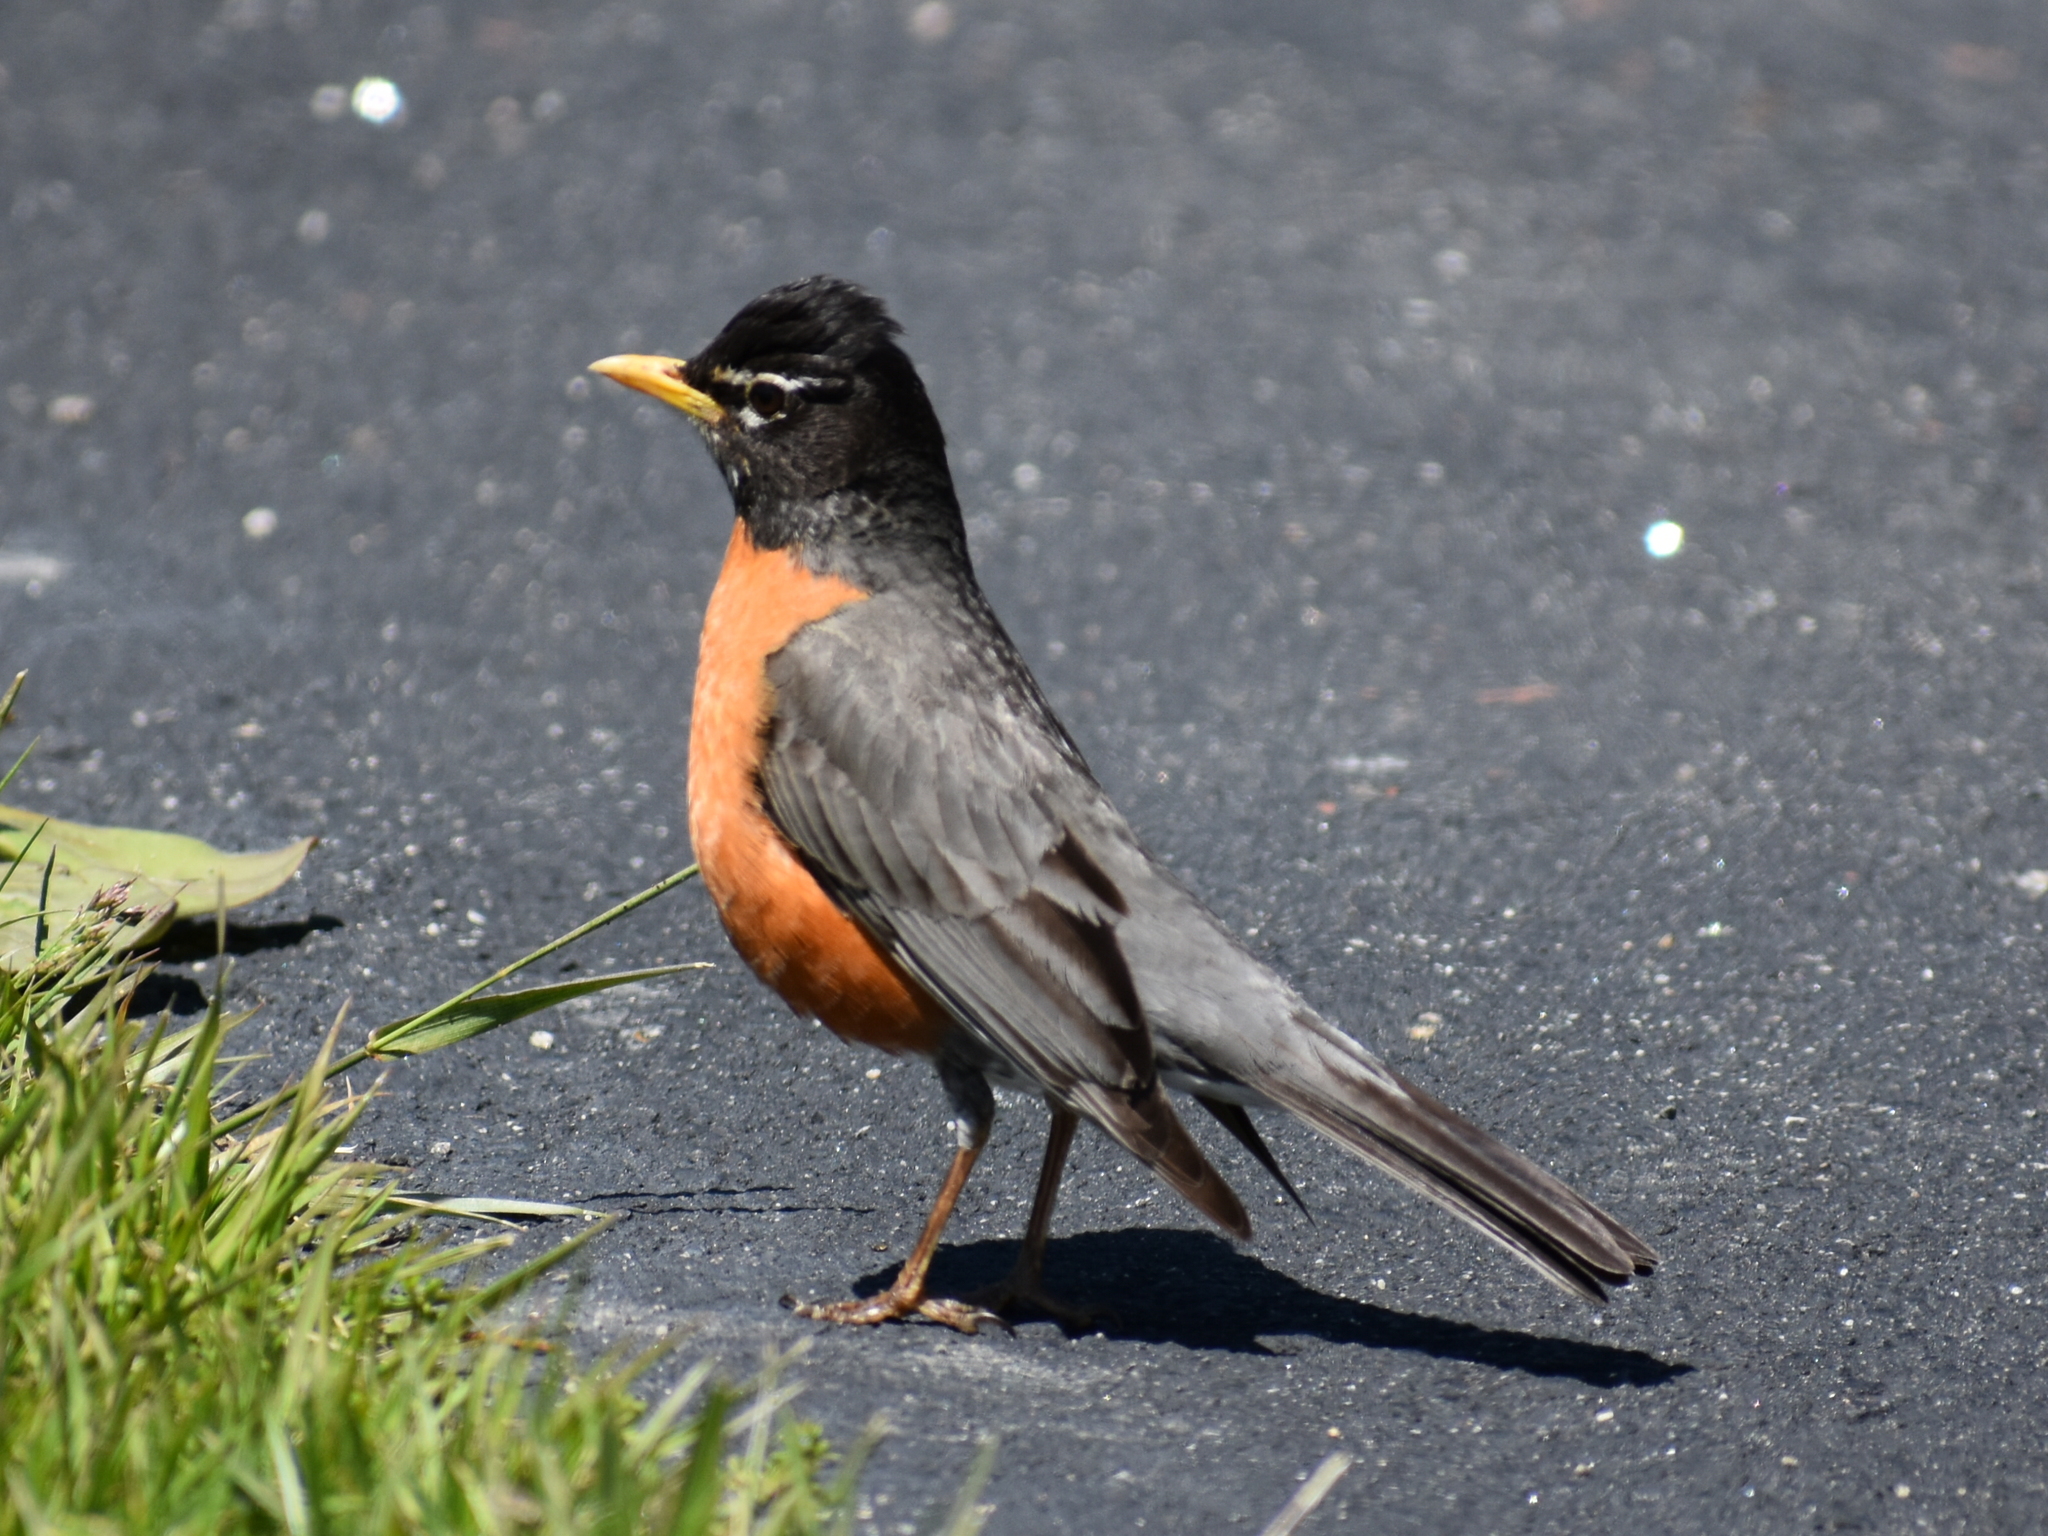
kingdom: Animalia
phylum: Chordata
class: Aves
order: Passeriformes
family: Turdidae
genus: Turdus
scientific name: Turdus migratorius
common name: American robin
